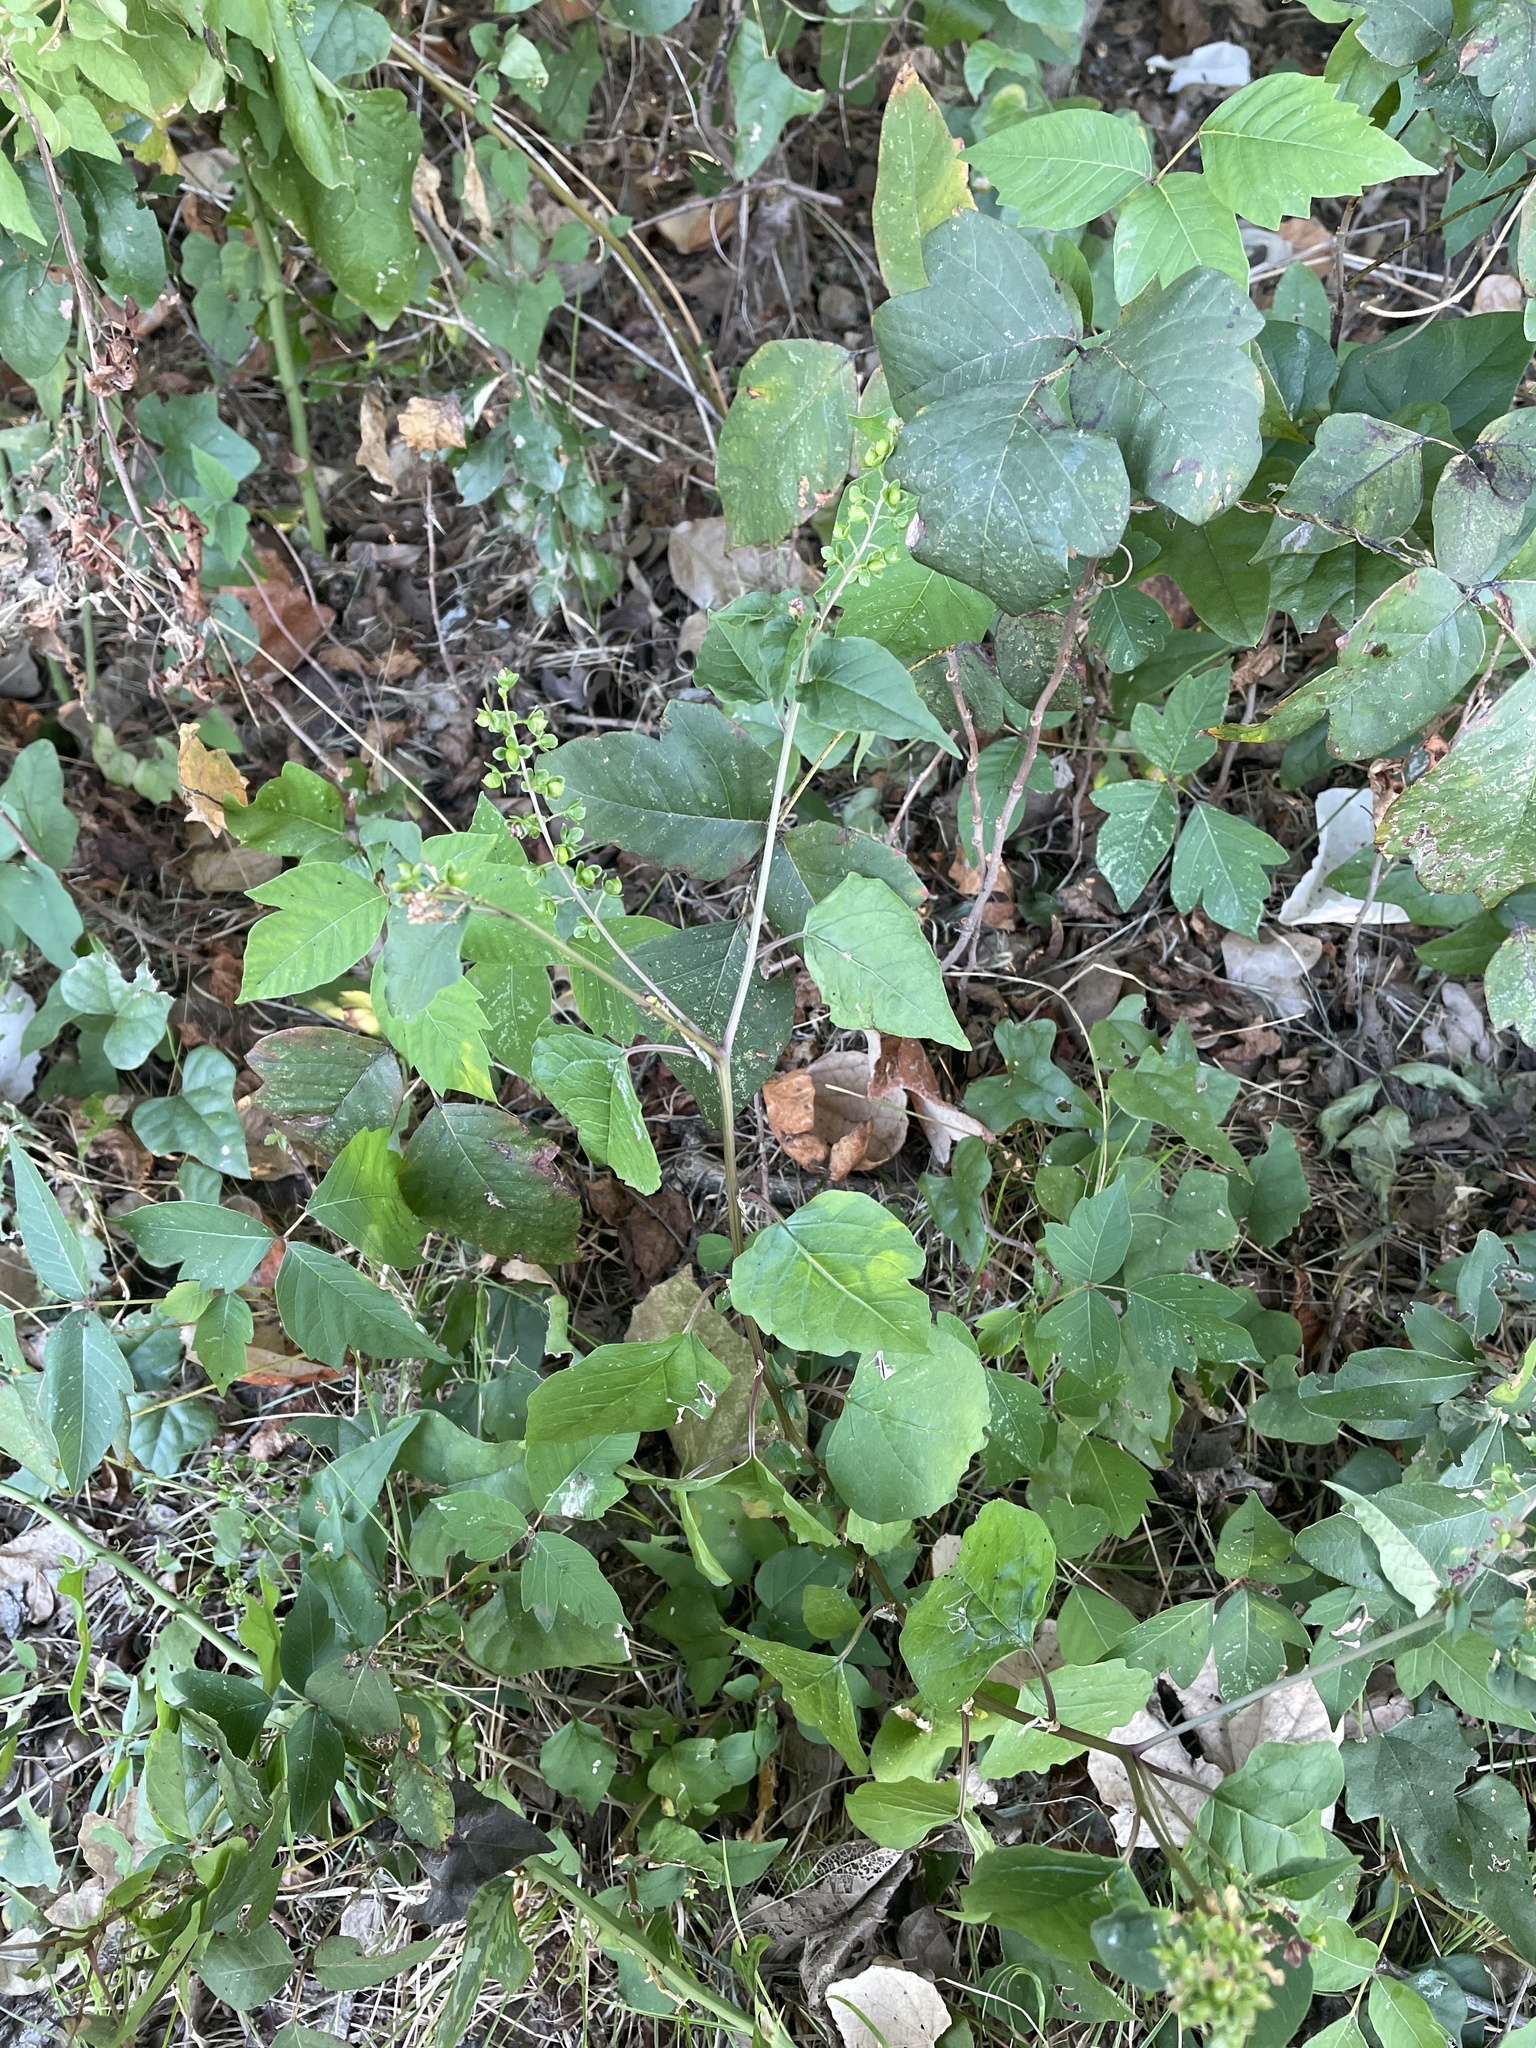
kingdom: Plantae
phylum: Tracheophyta
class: Magnoliopsida
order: Caryophyllales
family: Phytolaccaceae
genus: Rivina
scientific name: Rivina humilis
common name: Rougeplant
